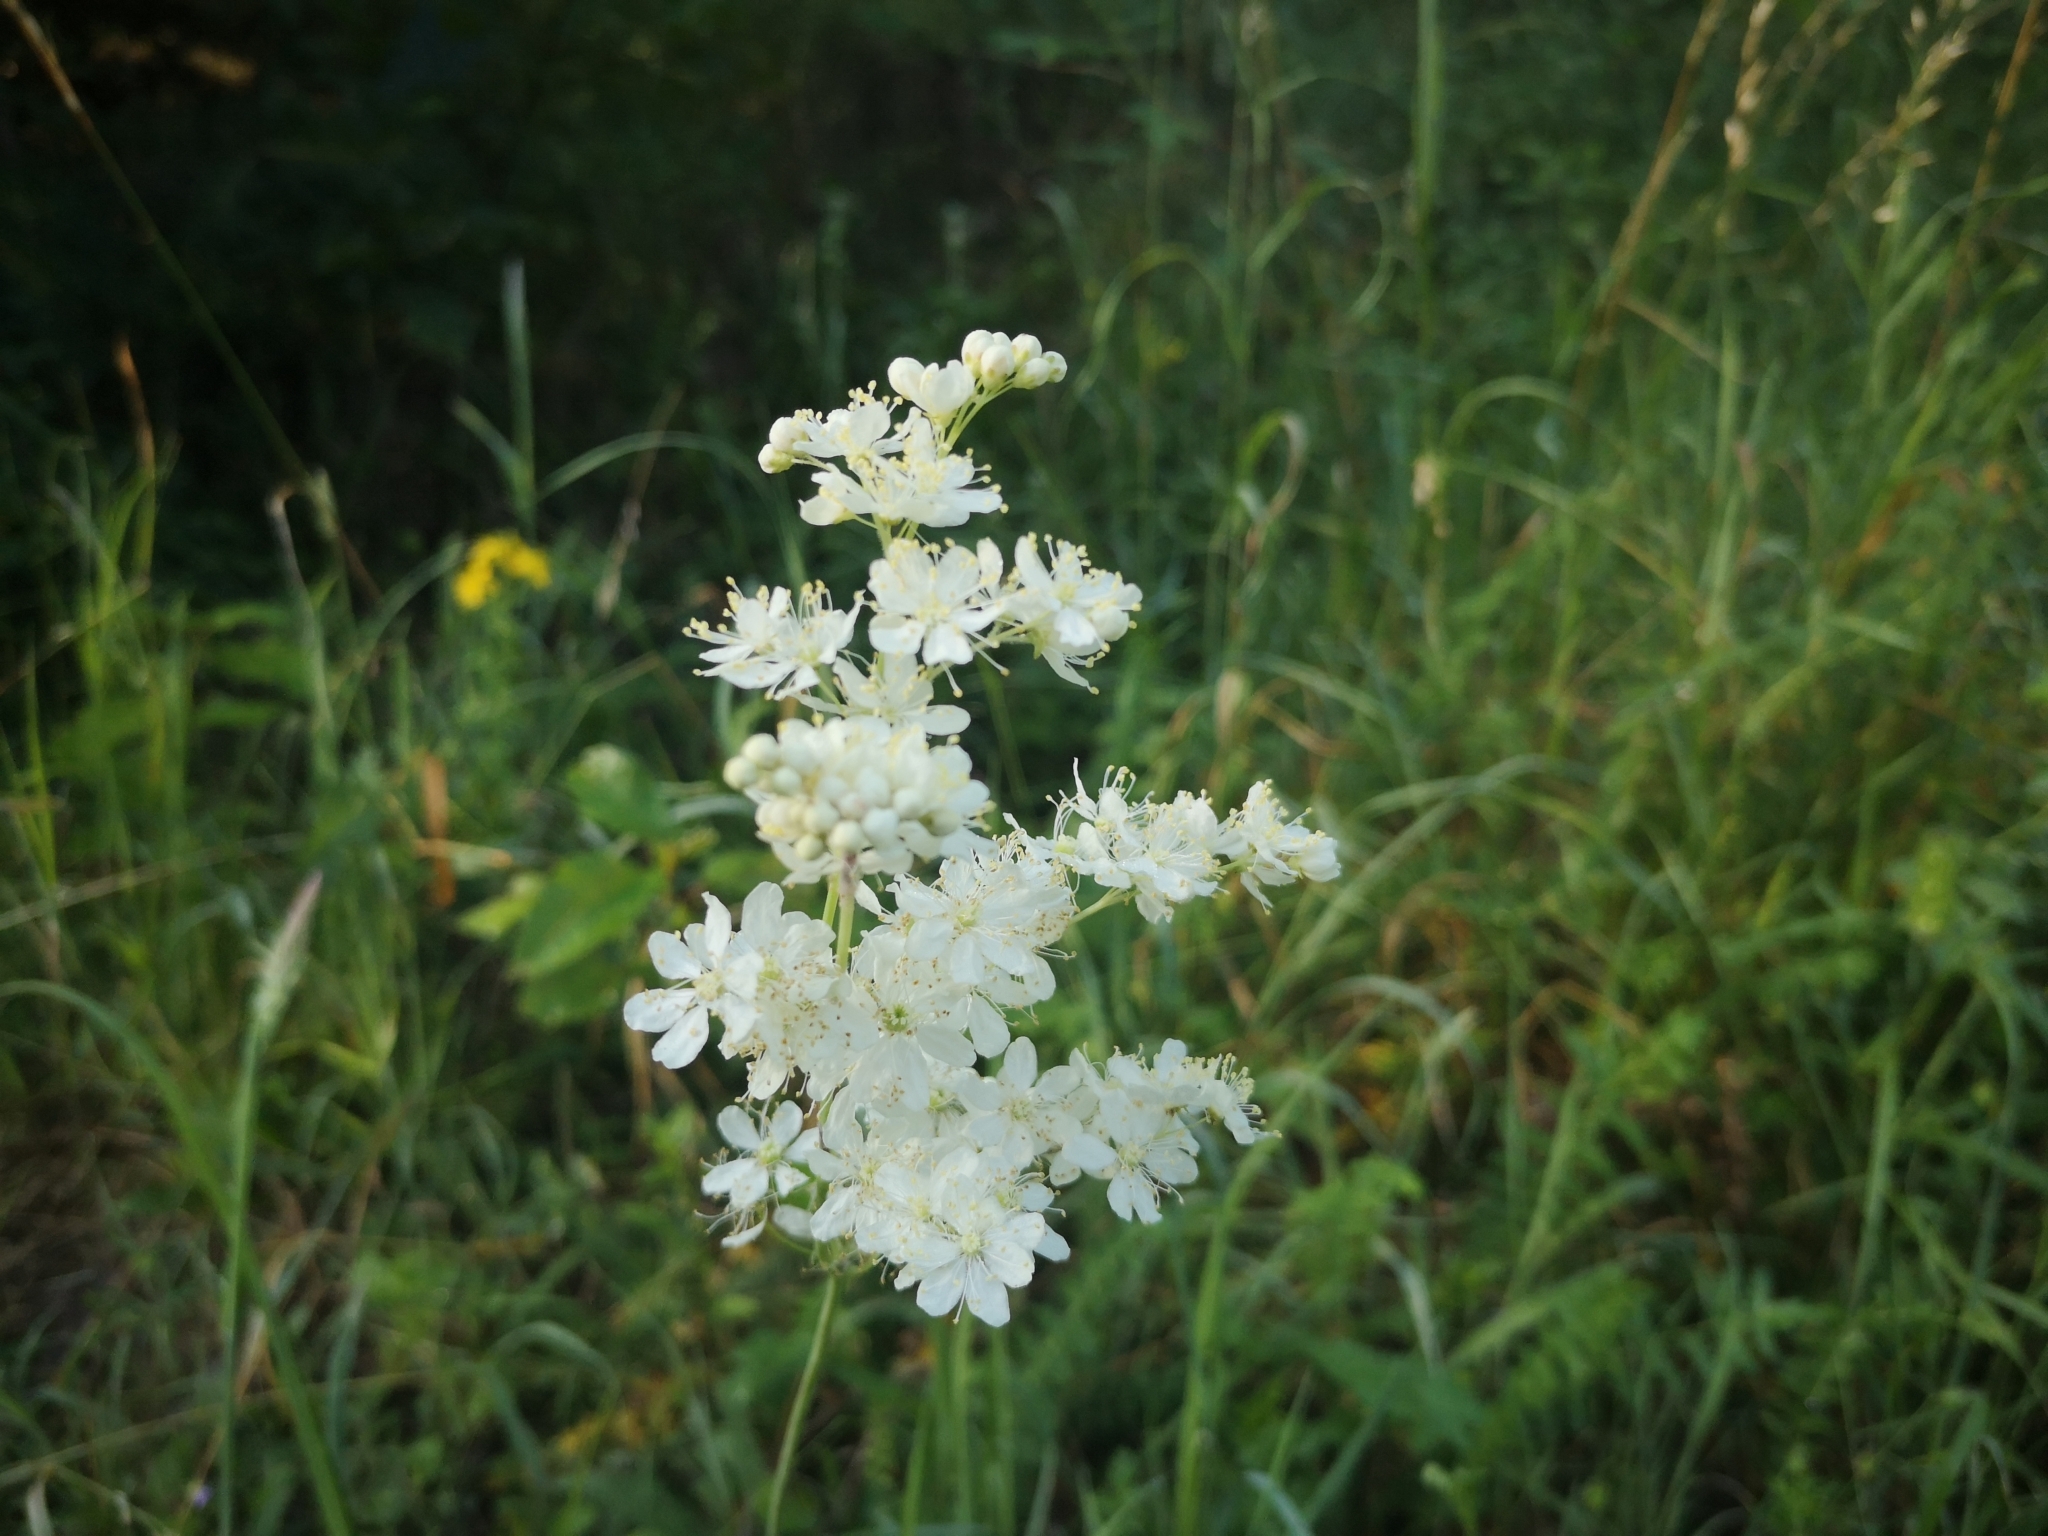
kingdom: Plantae
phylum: Tracheophyta
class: Magnoliopsida
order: Rosales
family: Rosaceae
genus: Filipendula
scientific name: Filipendula vulgaris
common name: Dropwort
